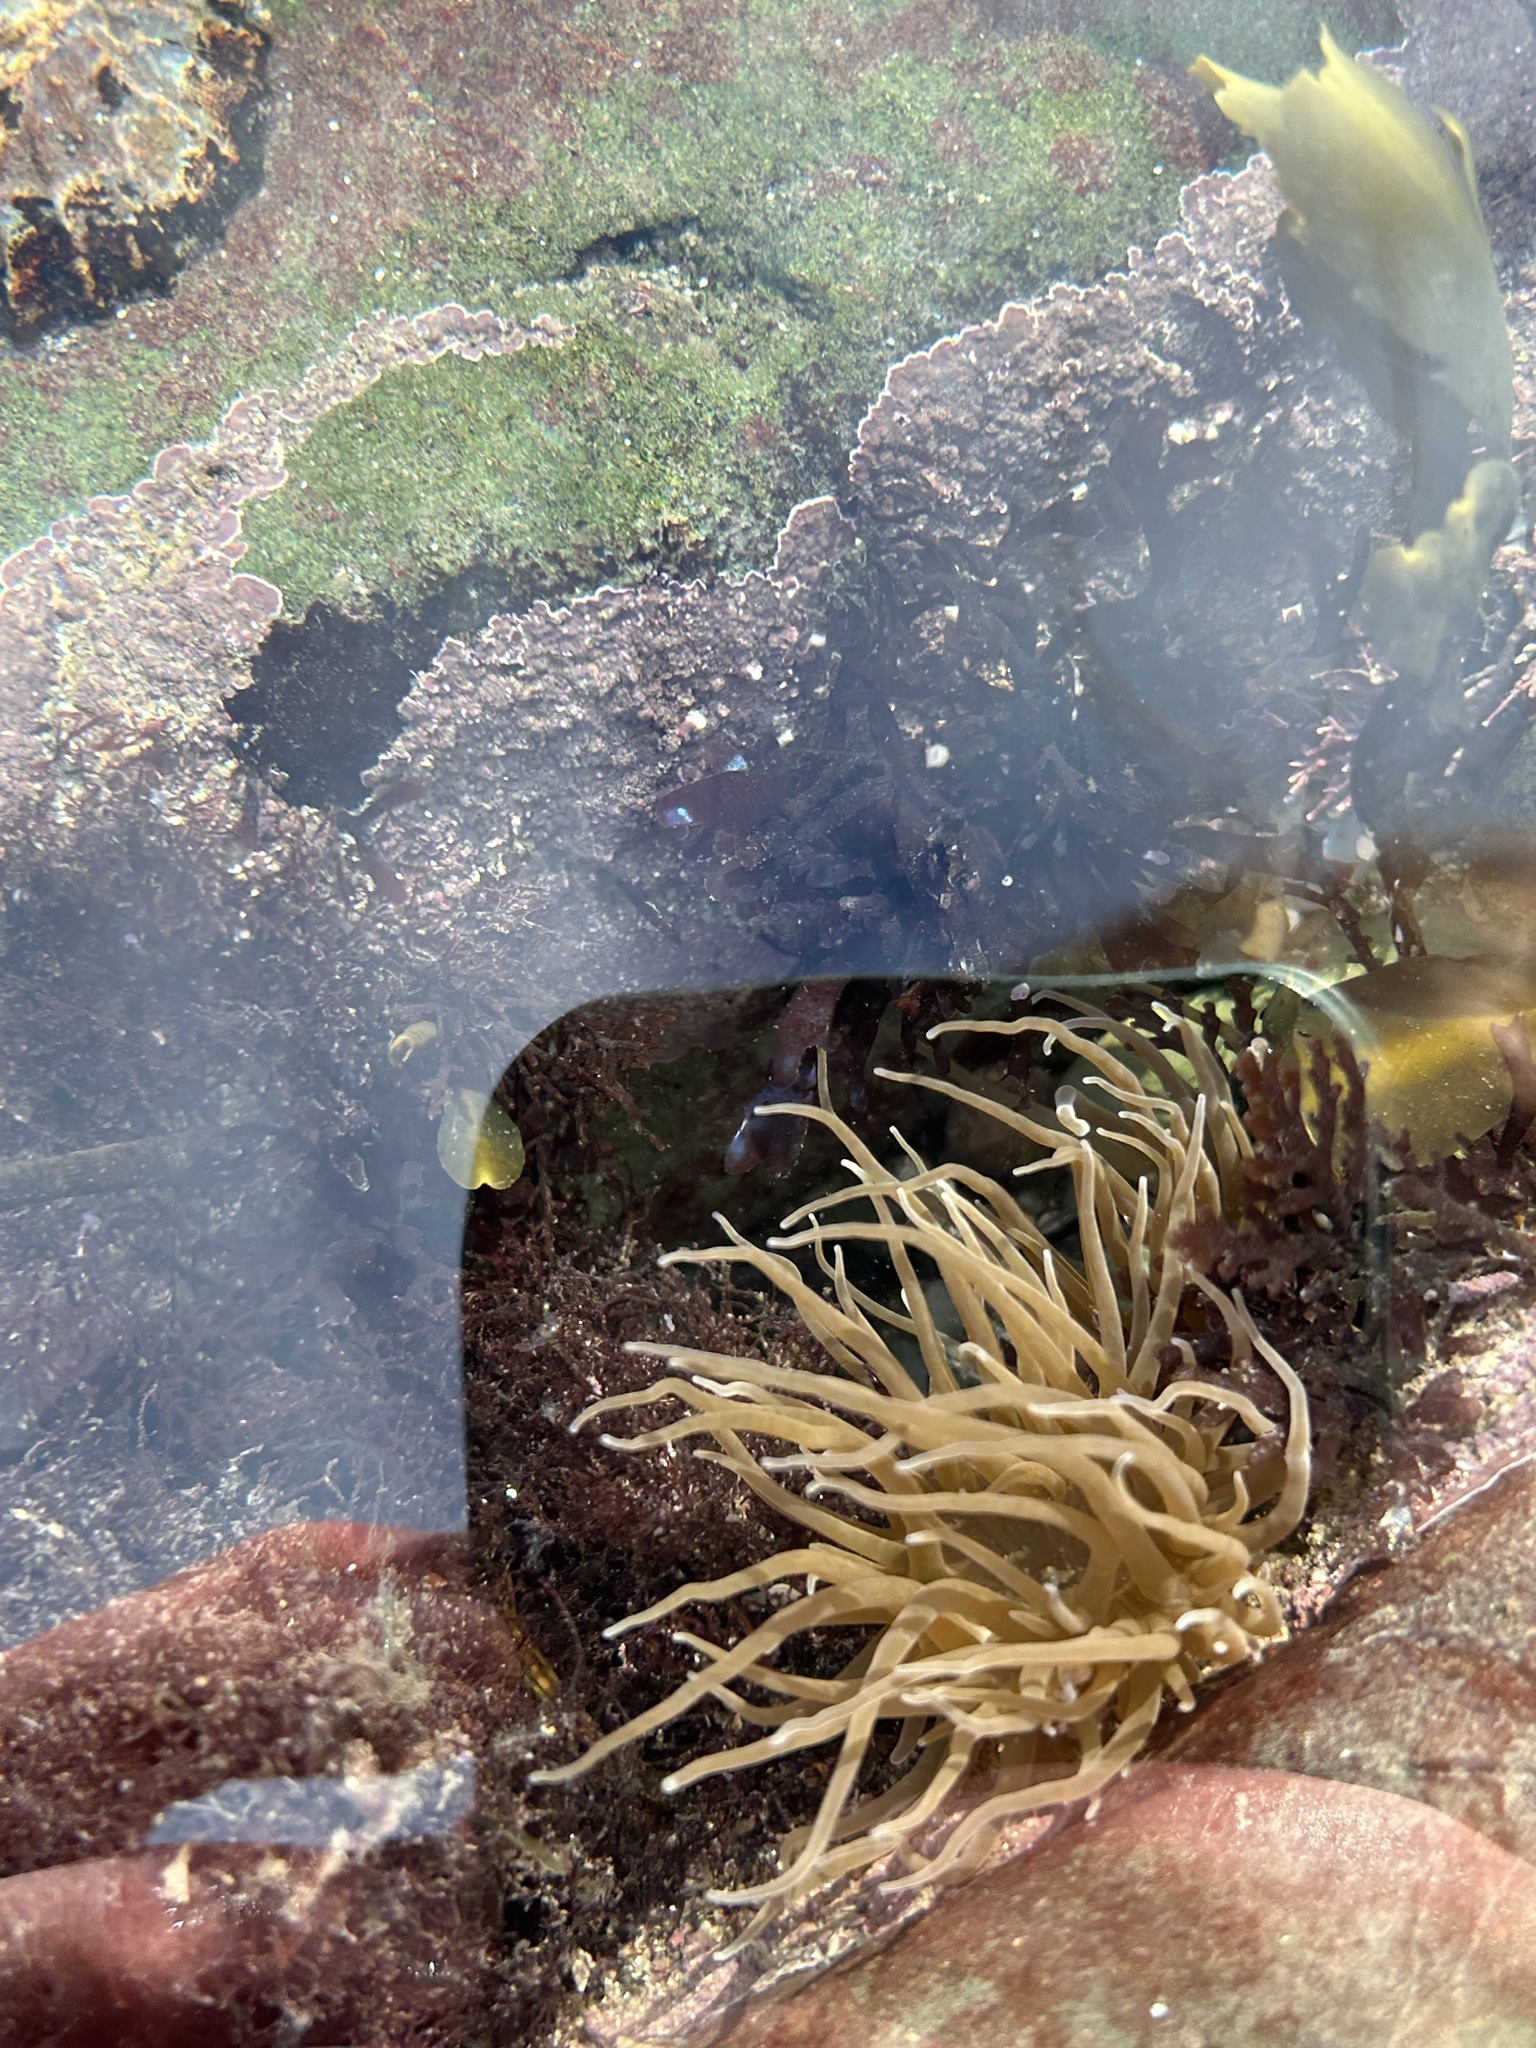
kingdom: Animalia
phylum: Cnidaria
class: Anthozoa
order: Actiniaria
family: Actiniidae
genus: Anemonia
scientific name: Anemonia viridis
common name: Snakelocks anemone
